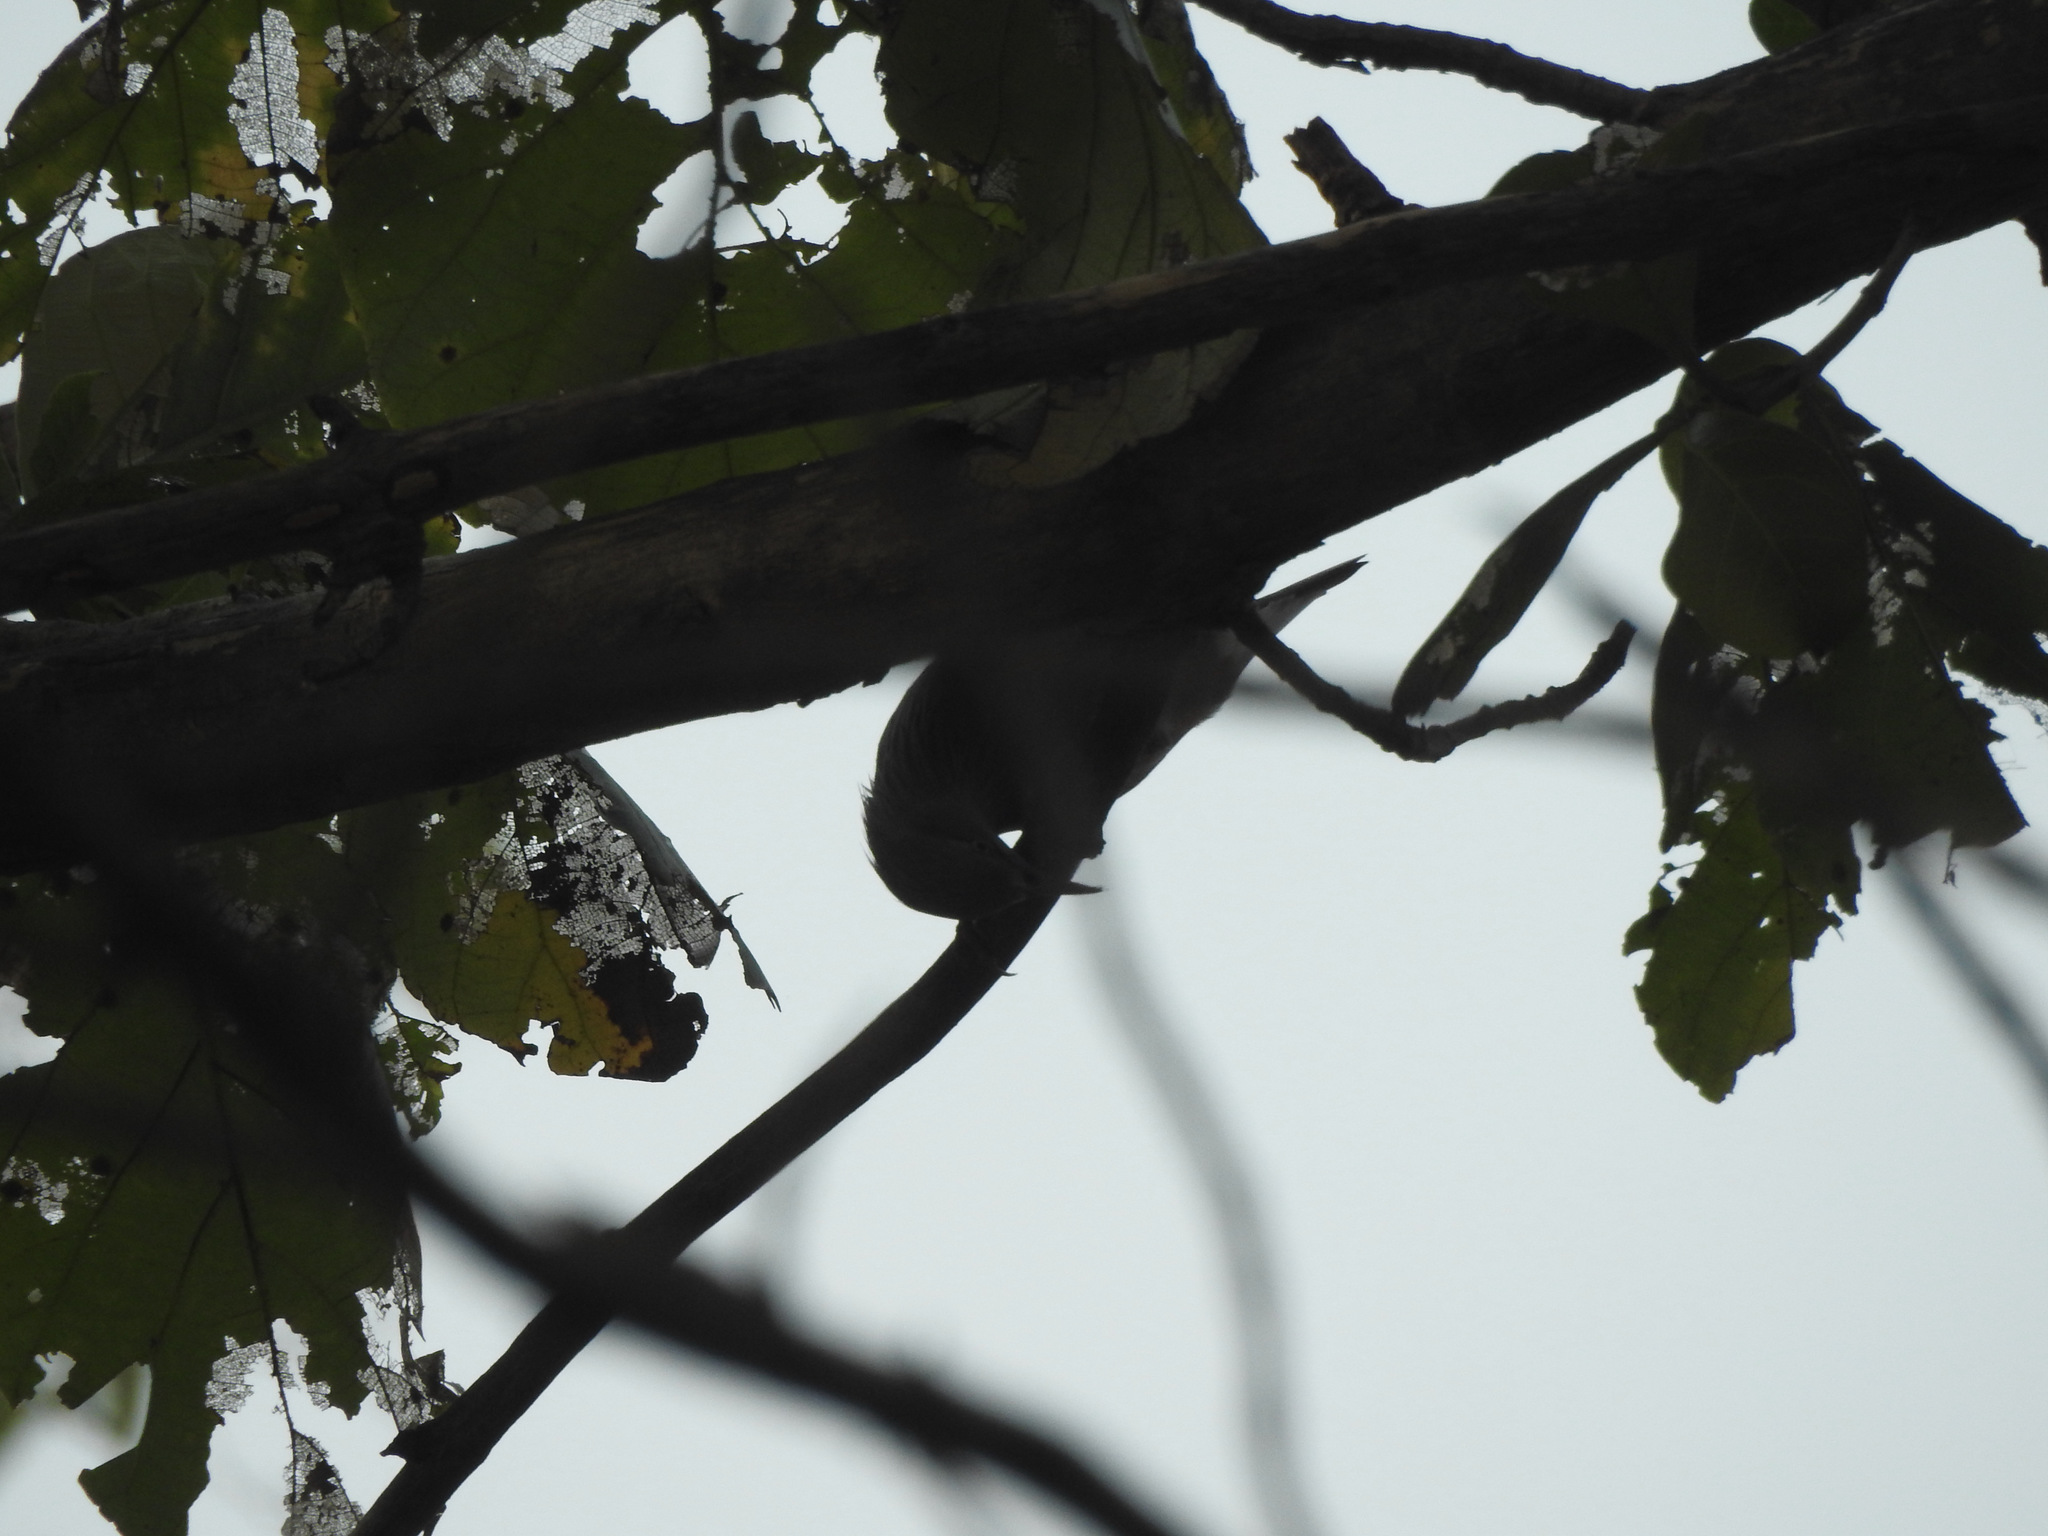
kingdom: Animalia
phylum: Chordata
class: Aves
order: Passeriformes
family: Sturnidae
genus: Sturnia
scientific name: Sturnia malabarica
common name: Chestnut-tailed starling
